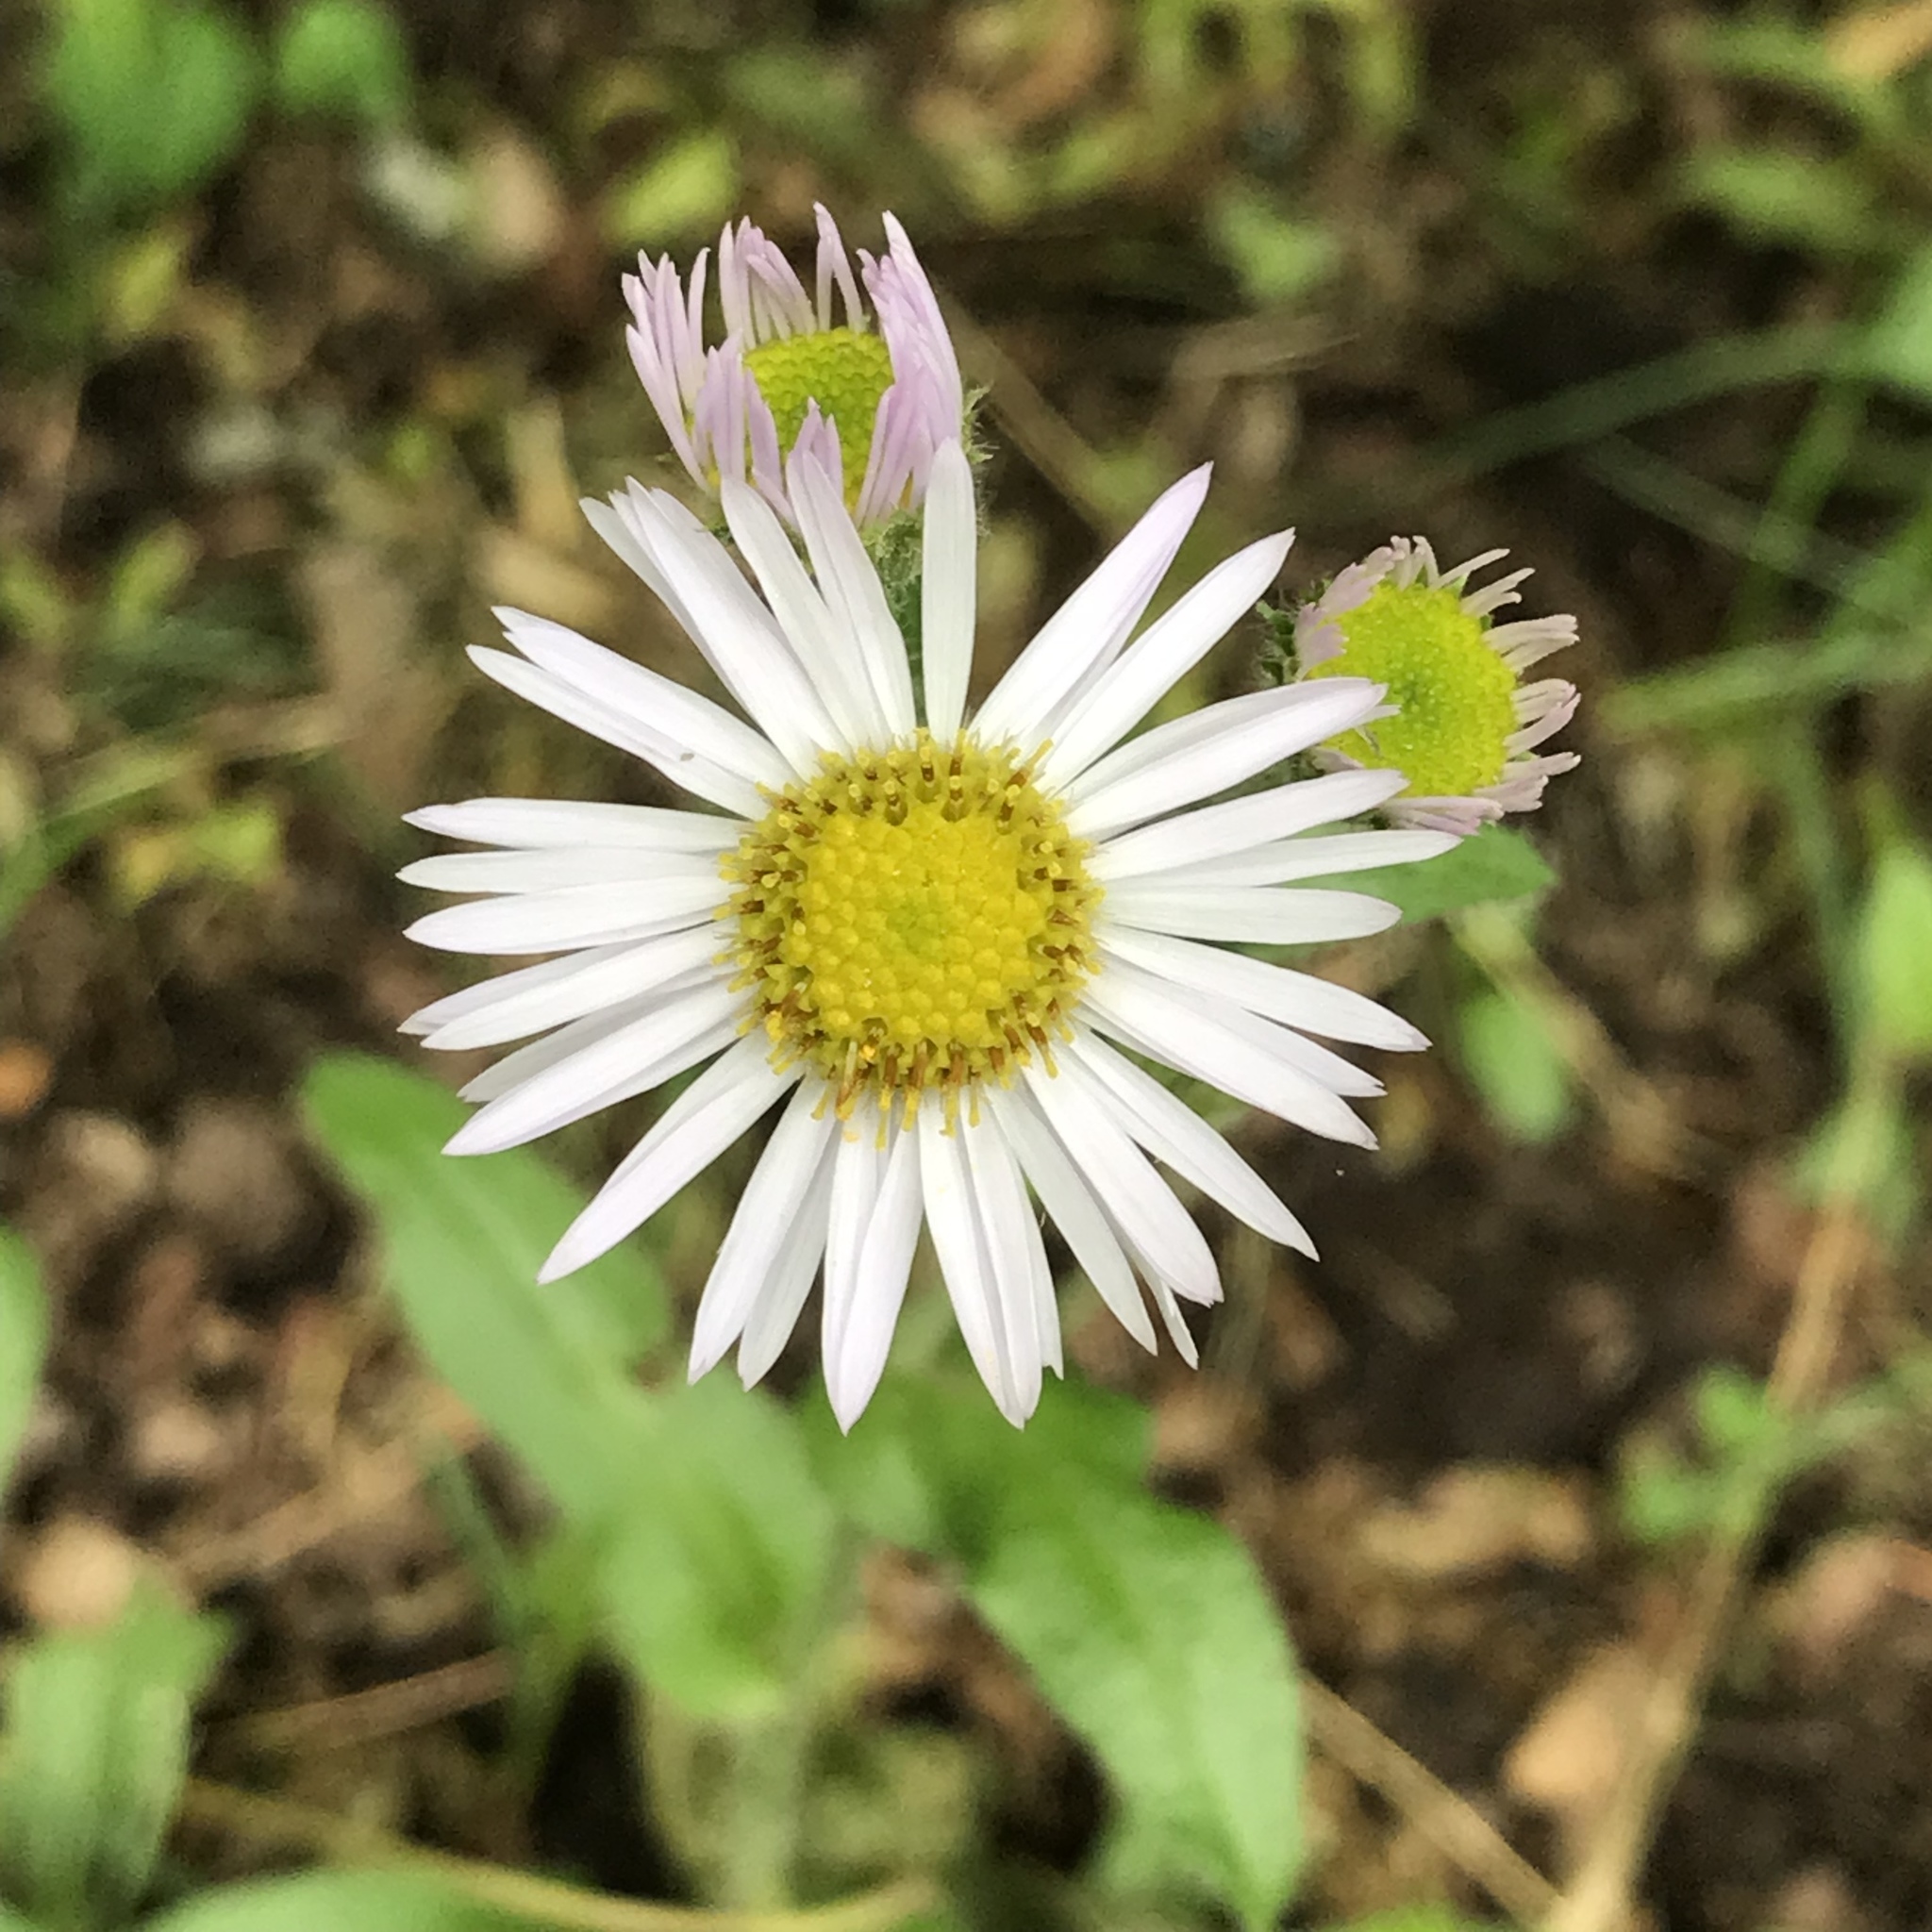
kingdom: Plantae
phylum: Tracheophyta
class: Magnoliopsida
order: Asterales
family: Asteraceae
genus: Erigeron
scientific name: Erigeron pulchellus
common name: Hairy fleabane
